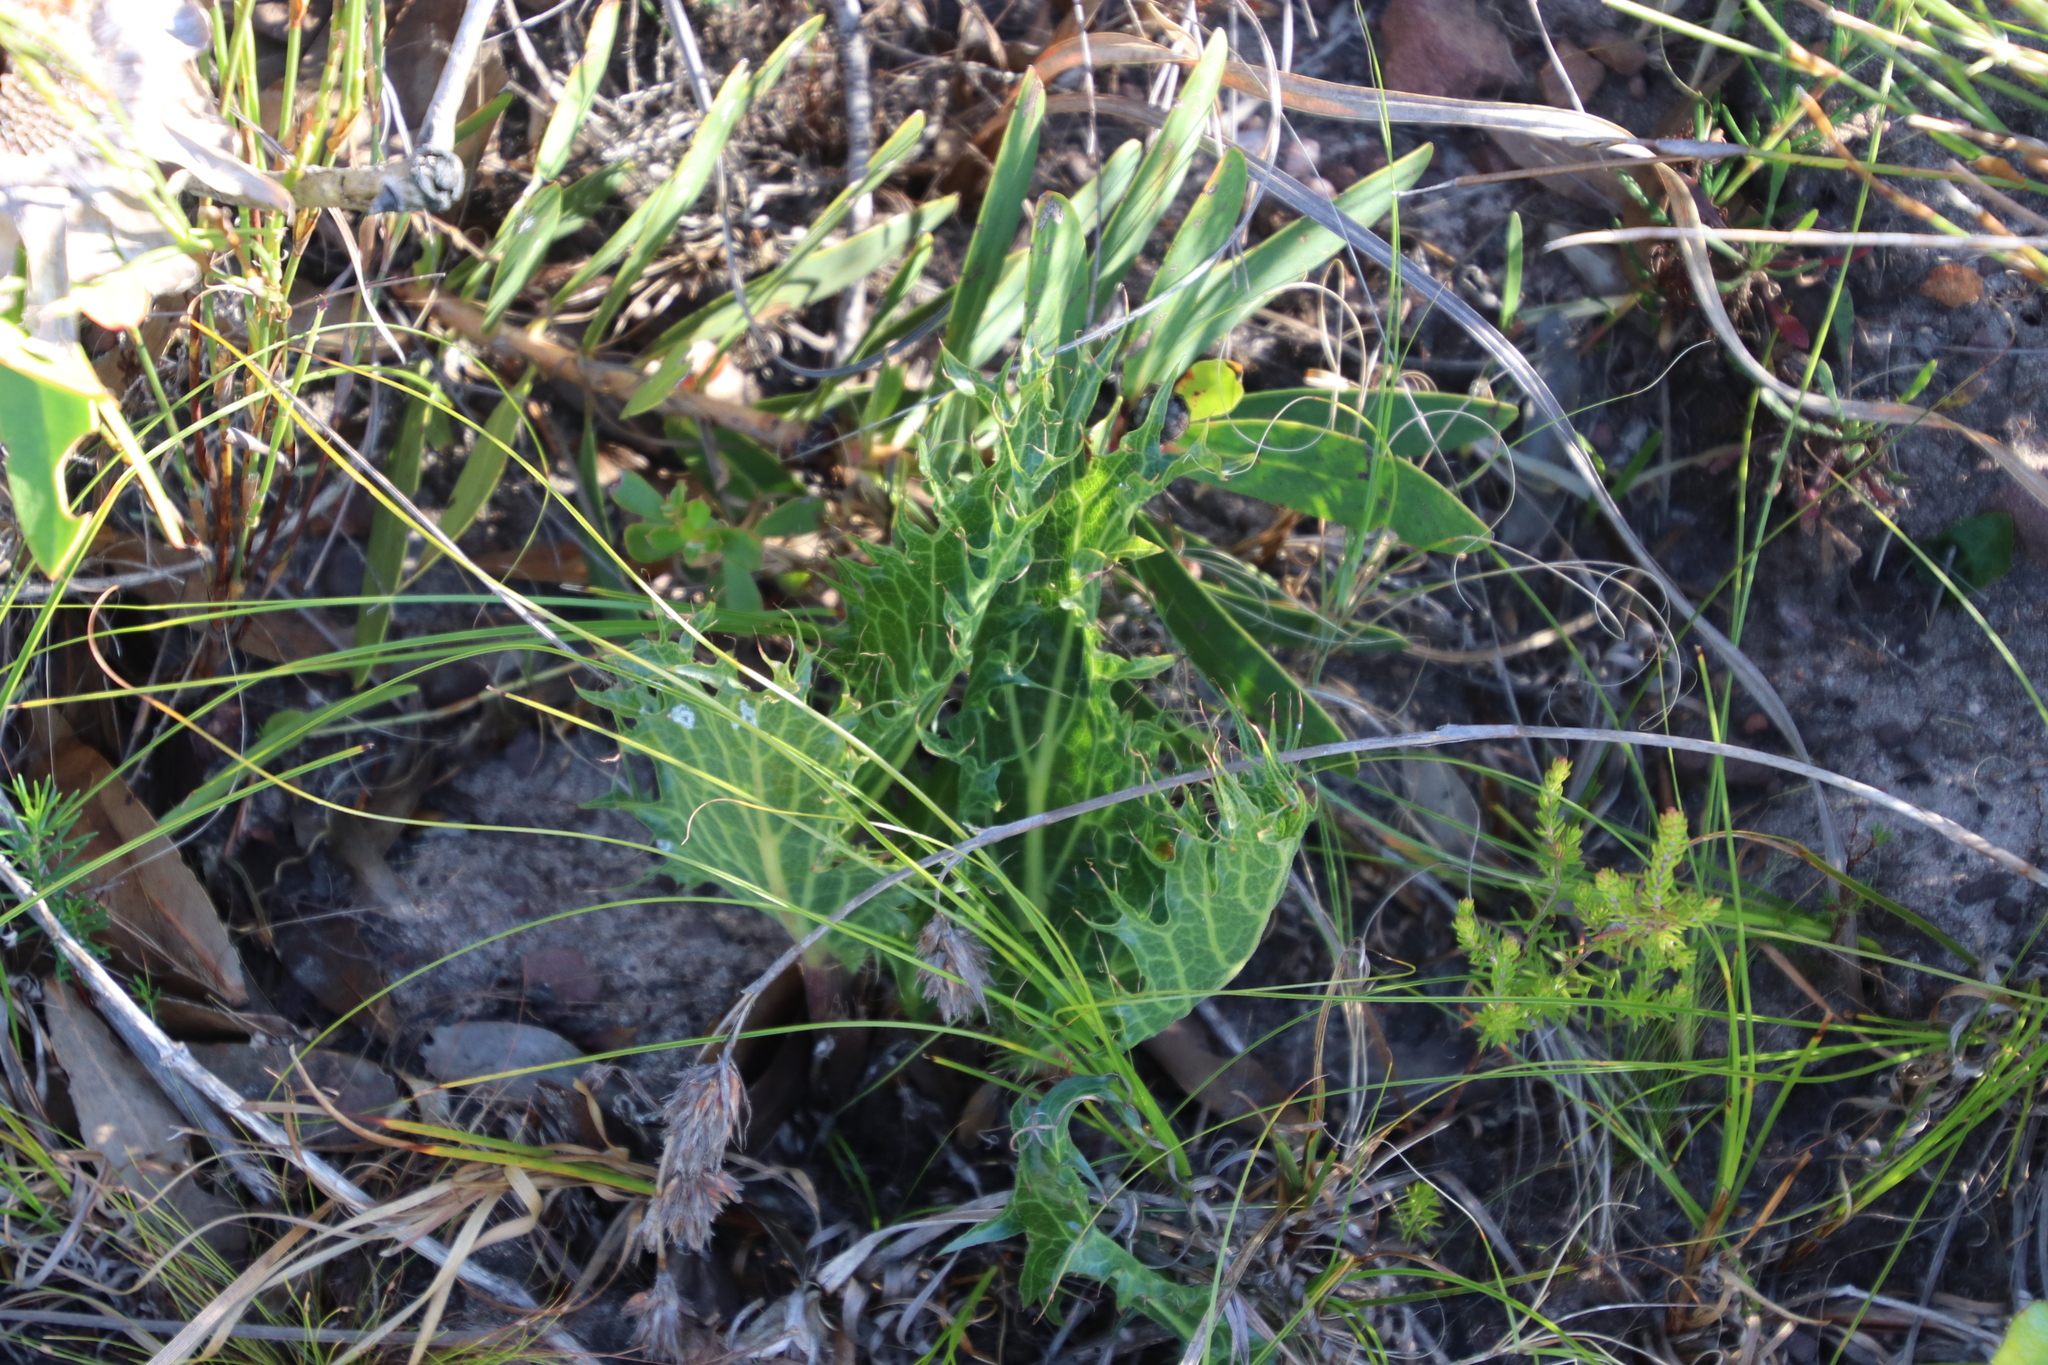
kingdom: Plantae
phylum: Tracheophyta
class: Magnoliopsida
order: Apiales
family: Apiaceae
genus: Lichtensteinia
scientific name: Lichtensteinia lacera
